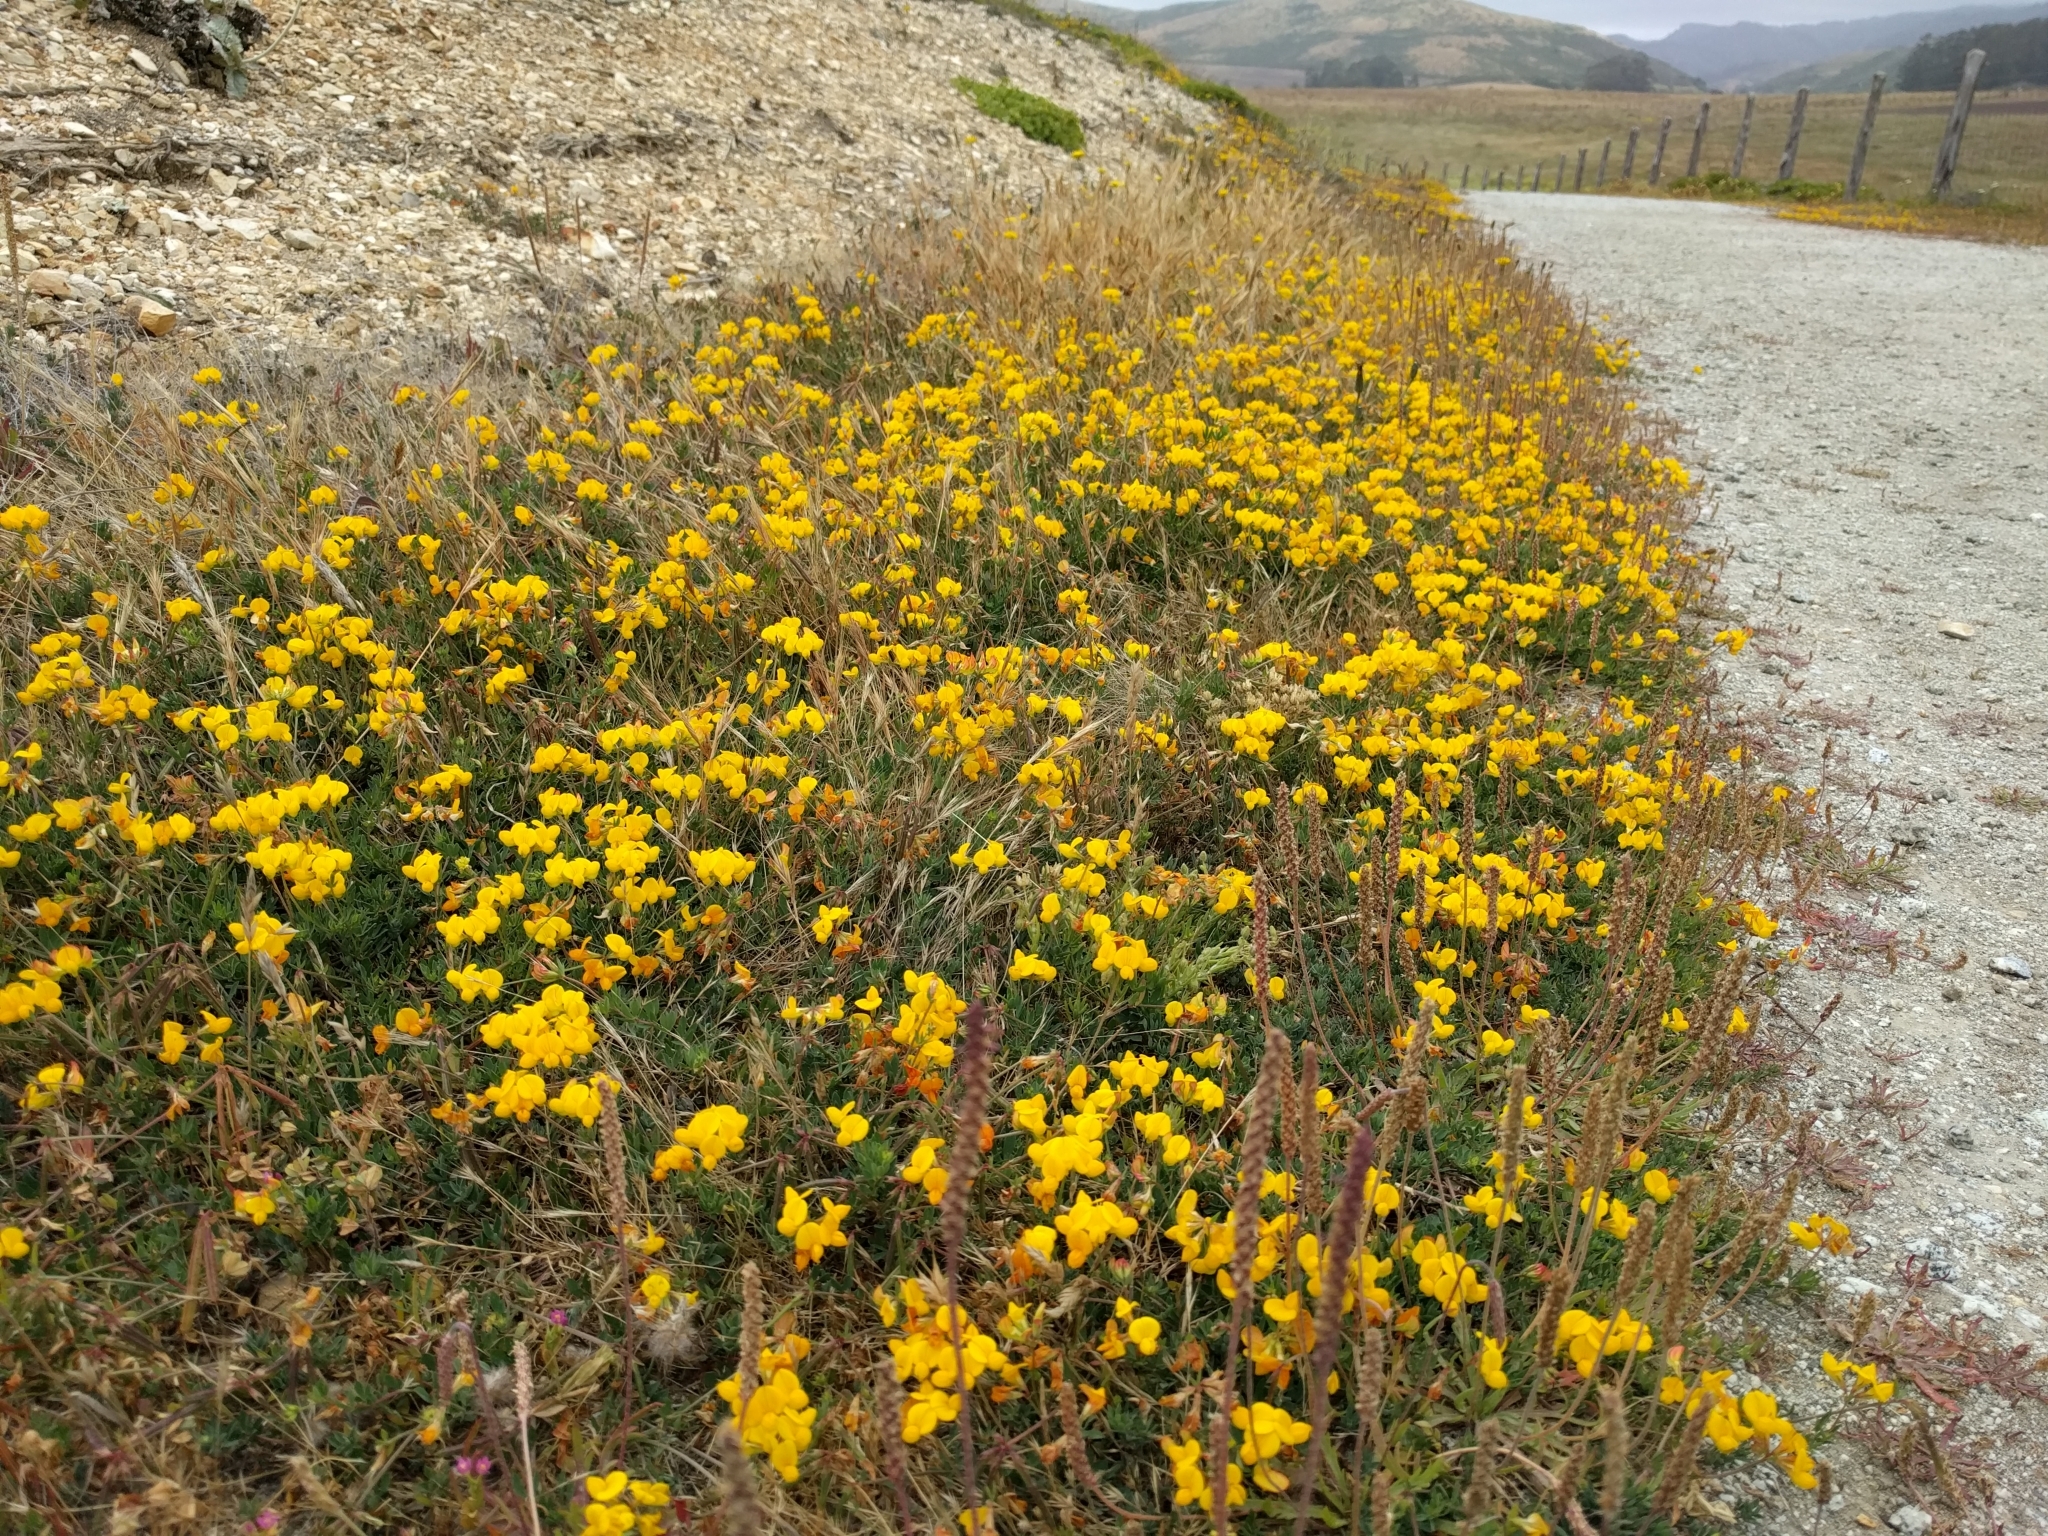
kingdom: Plantae
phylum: Tracheophyta
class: Magnoliopsida
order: Fabales
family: Fabaceae
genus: Lotus
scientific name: Lotus corniculatus
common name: Common bird's-foot-trefoil
